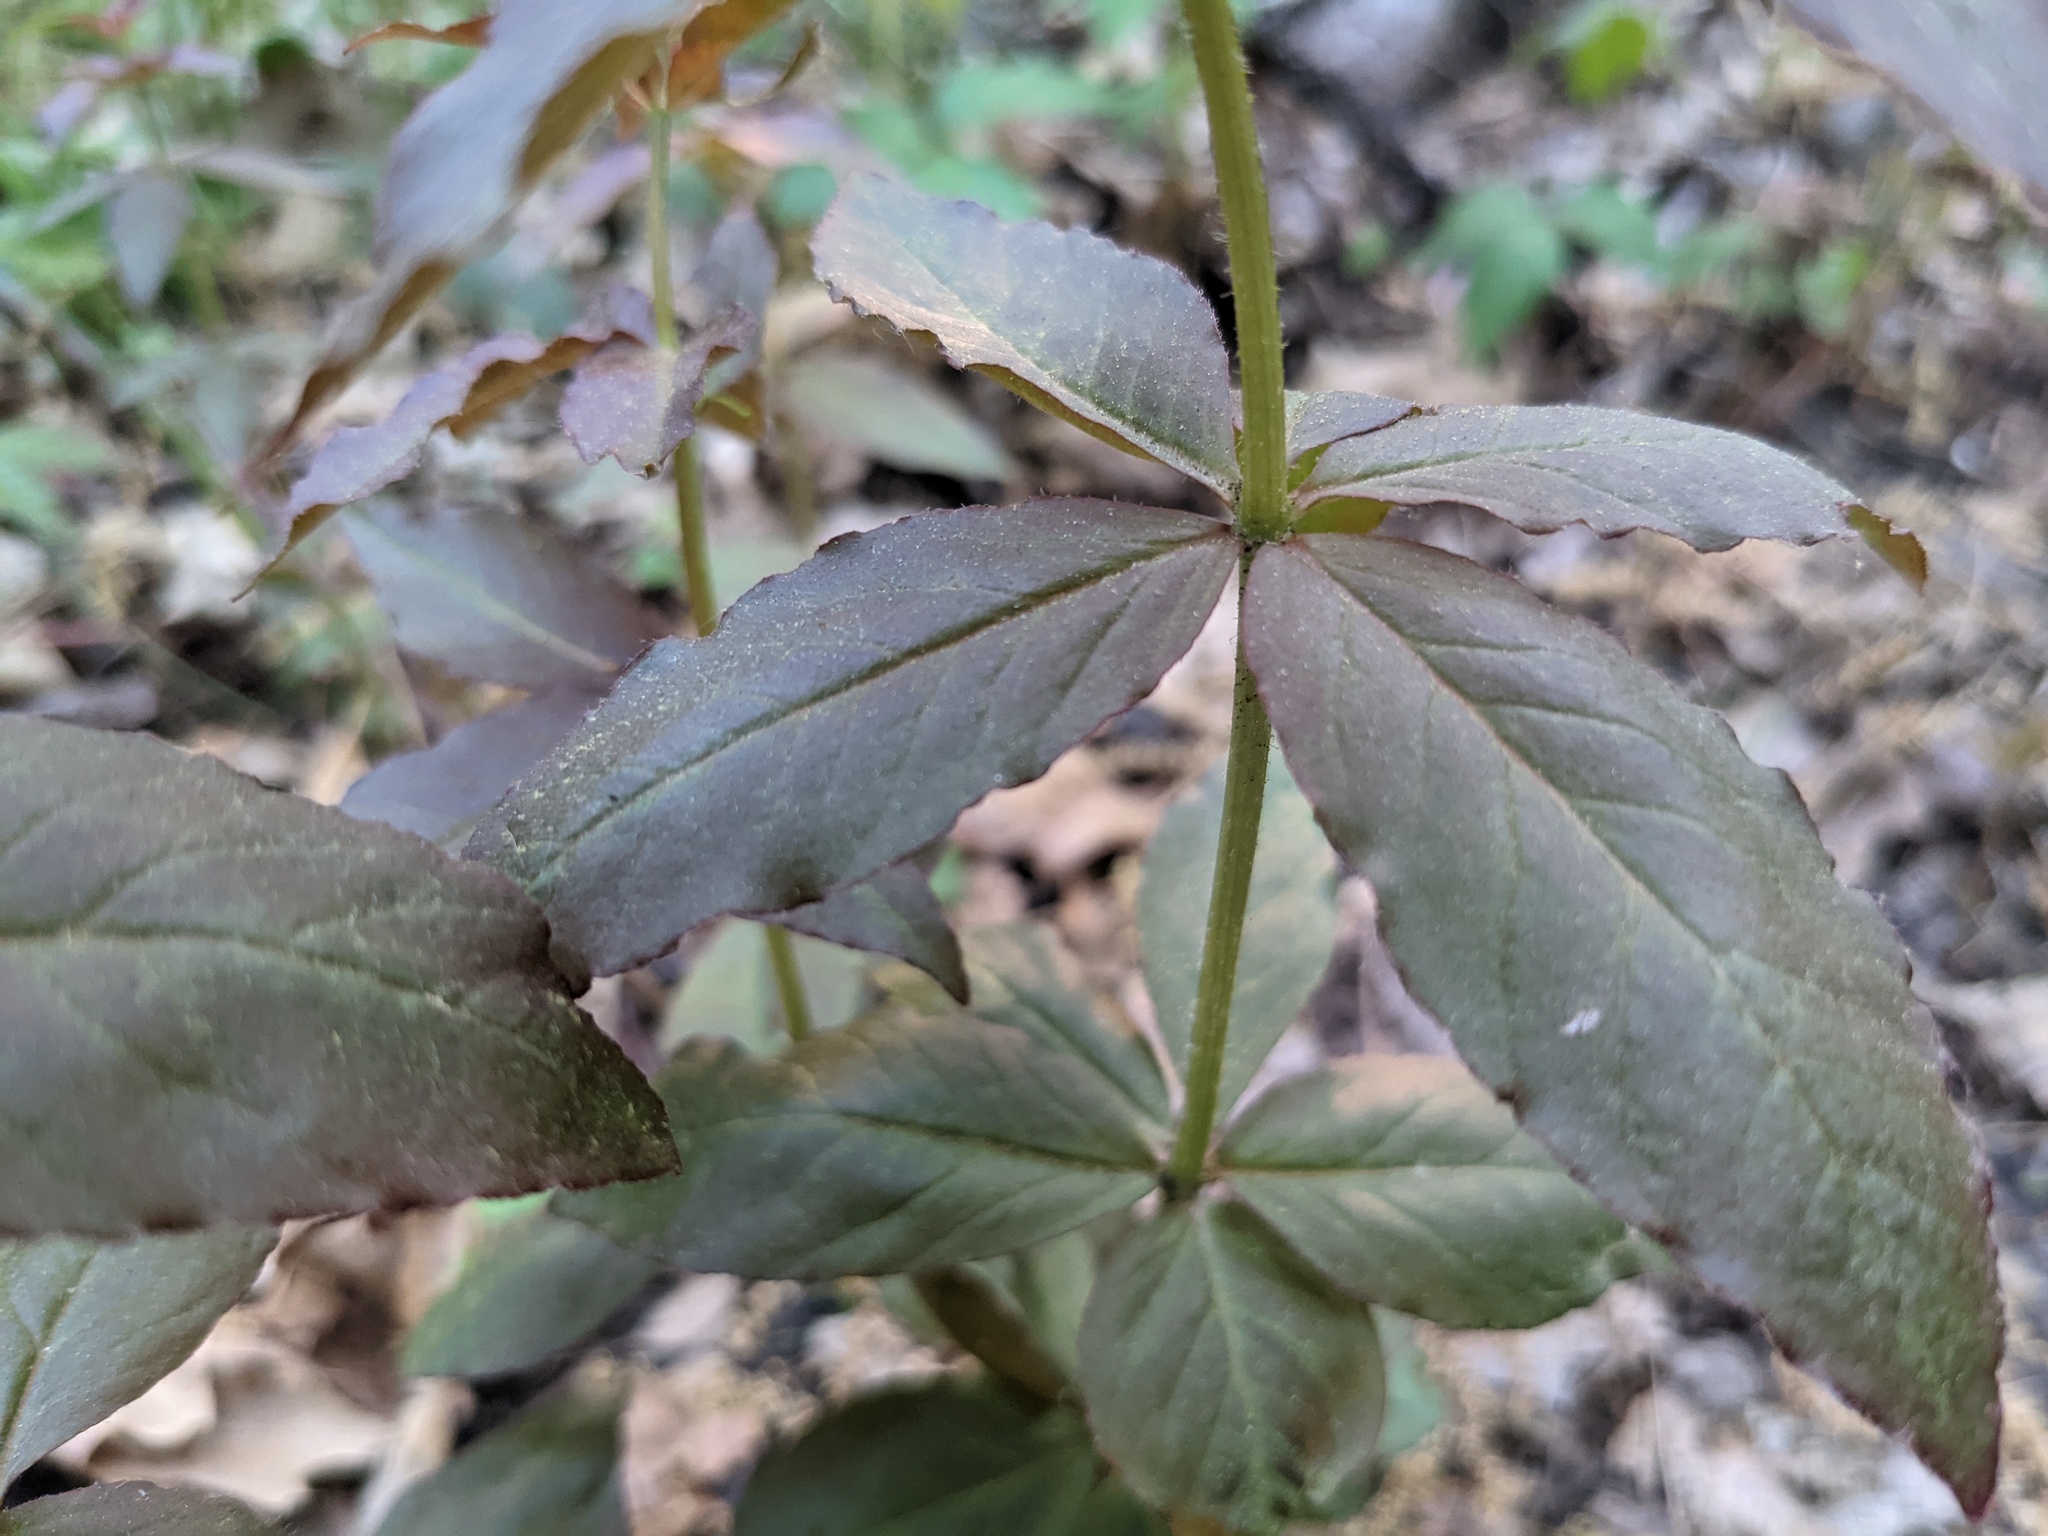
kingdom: Plantae
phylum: Tracheophyta
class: Magnoliopsida
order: Ericales
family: Primulaceae
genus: Lysimachia
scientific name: Lysimachia quadrifolia
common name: Whorled loosestrife
